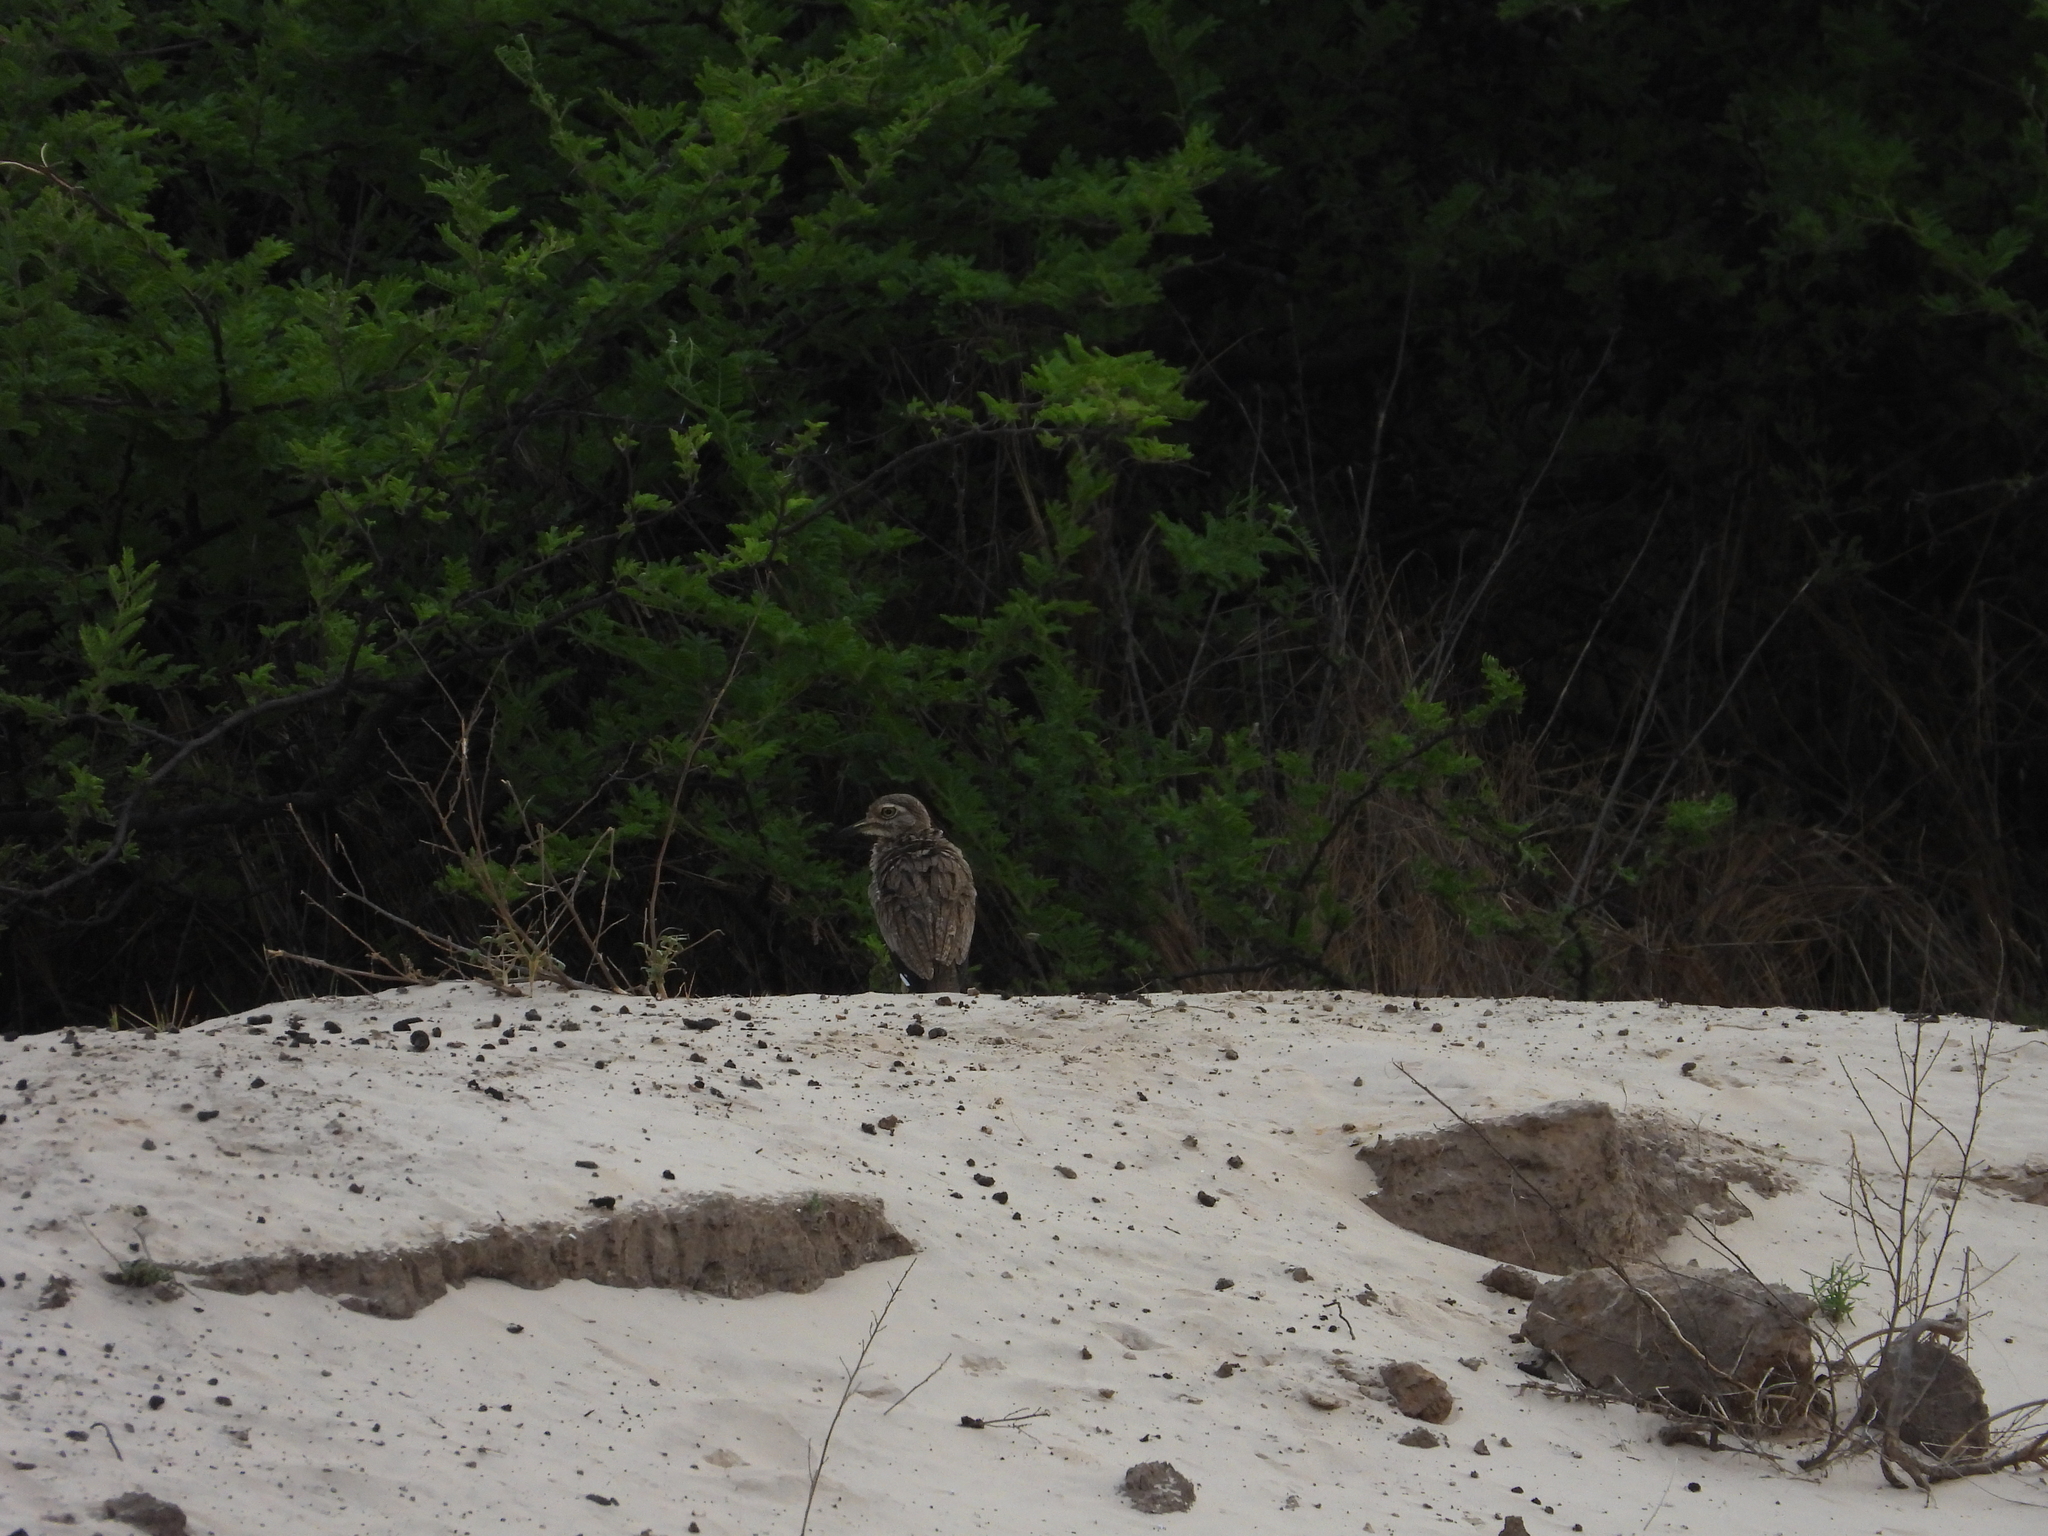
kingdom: Animalia
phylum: Chordata
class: Aves
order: Charadriiformes
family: Burhinidae
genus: Burhinus
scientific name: Burhinus vermiculatus
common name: Water thick-knee
